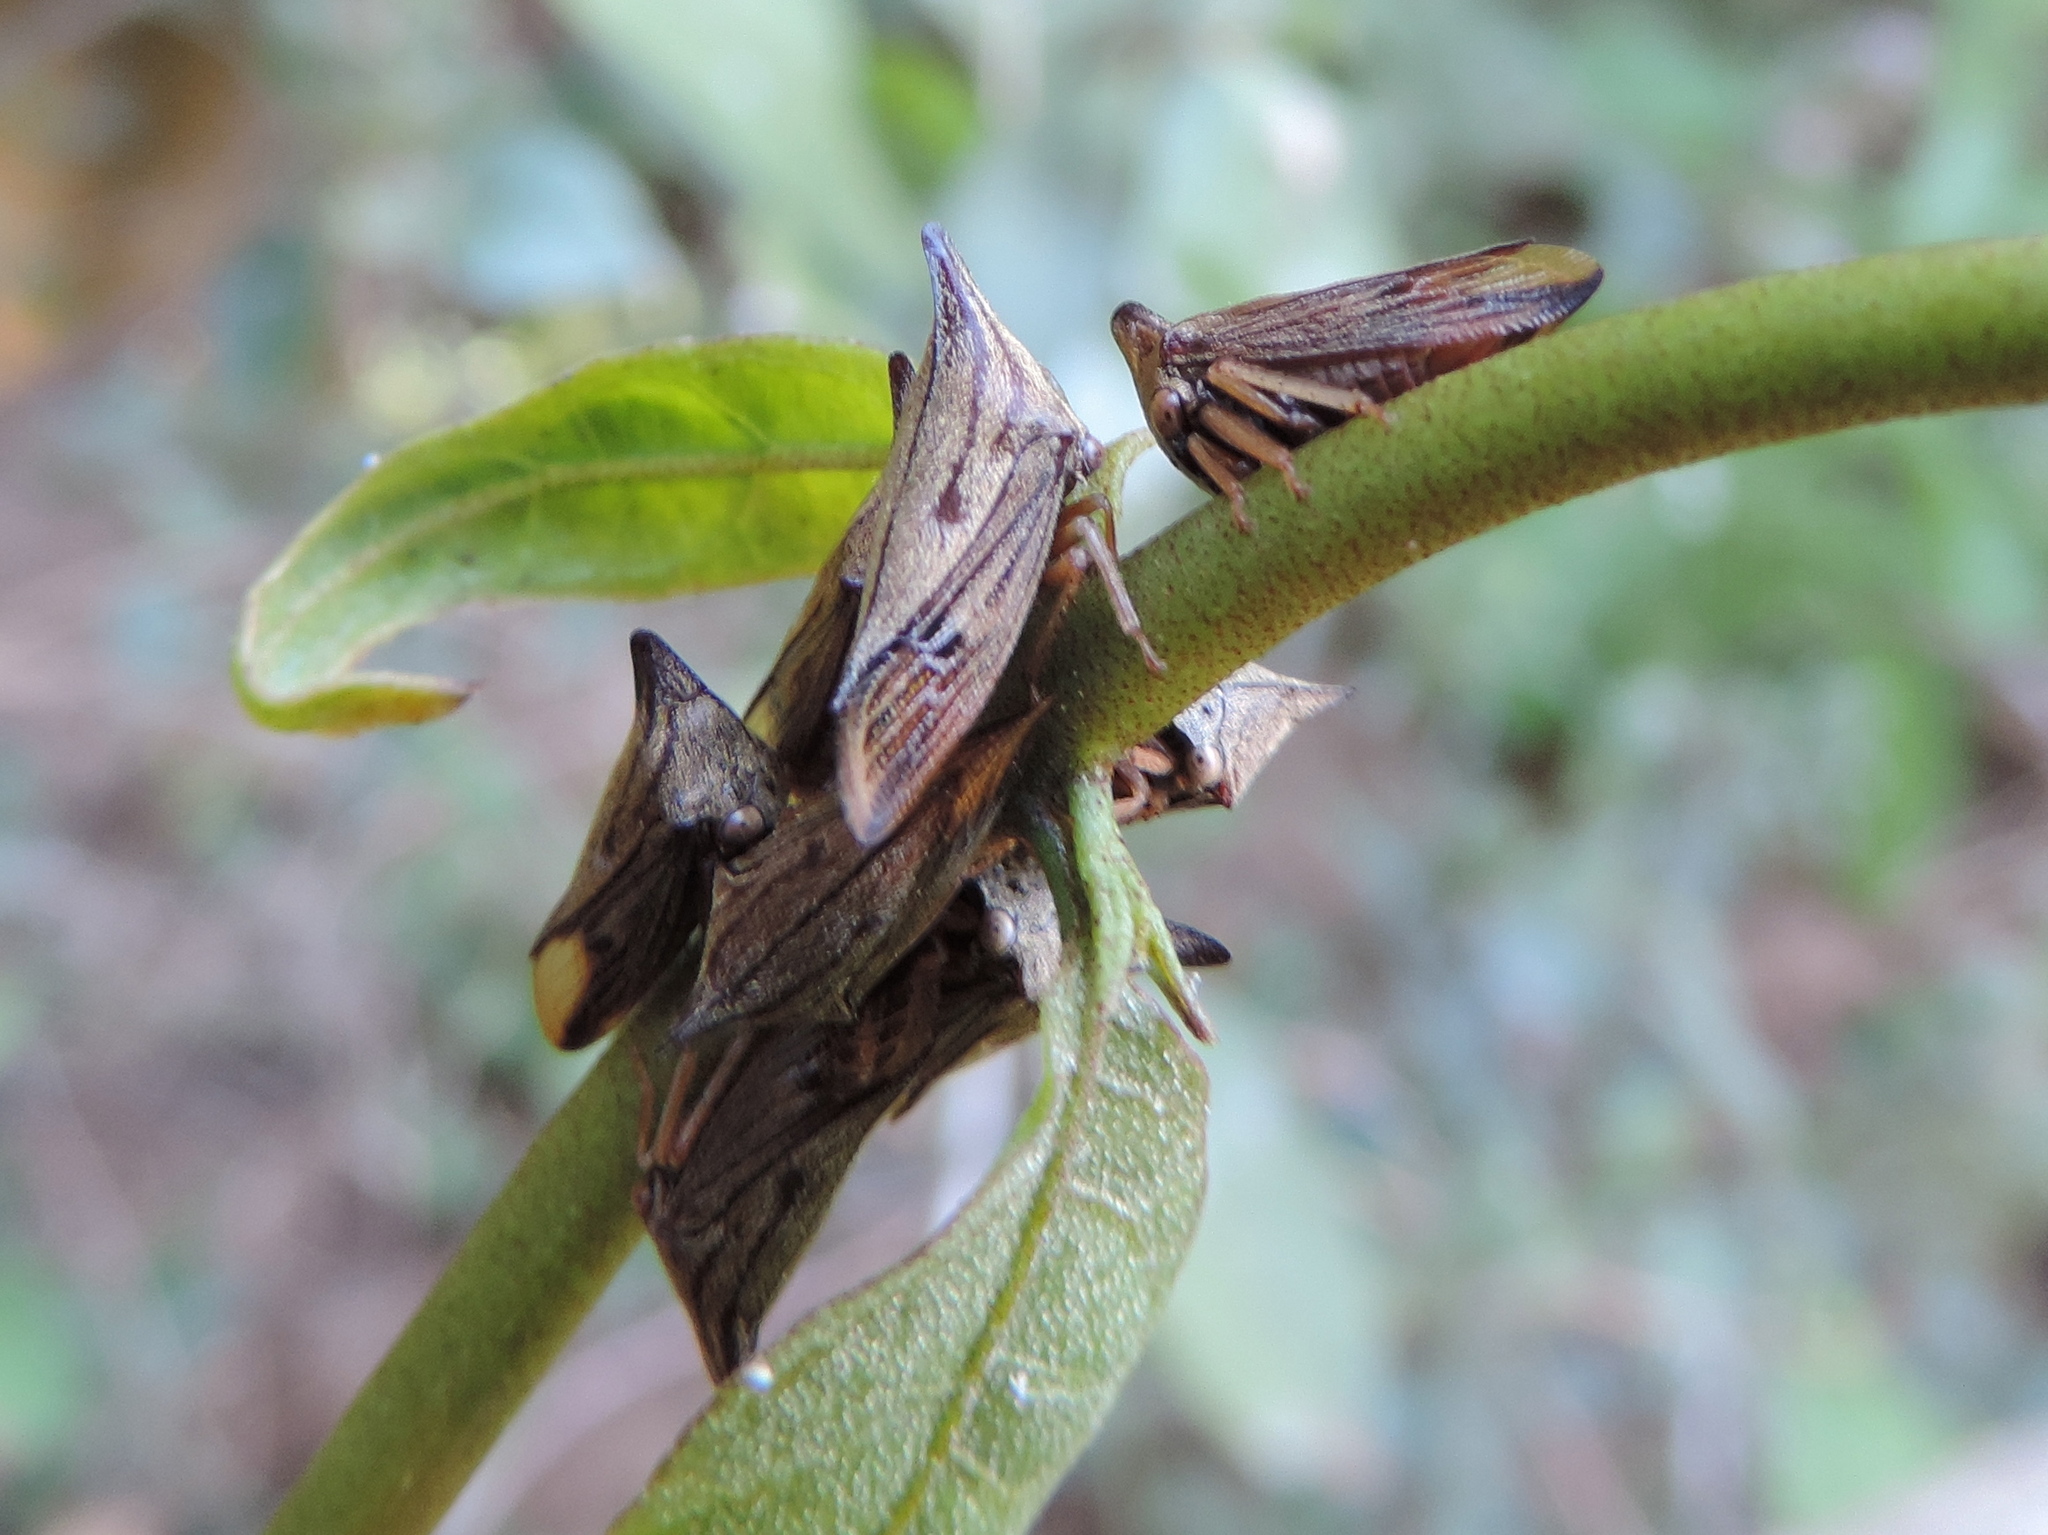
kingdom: Animalia
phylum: Arthropoda
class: Insecta
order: Hemiptera
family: Membracidae
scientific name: Membracidae
